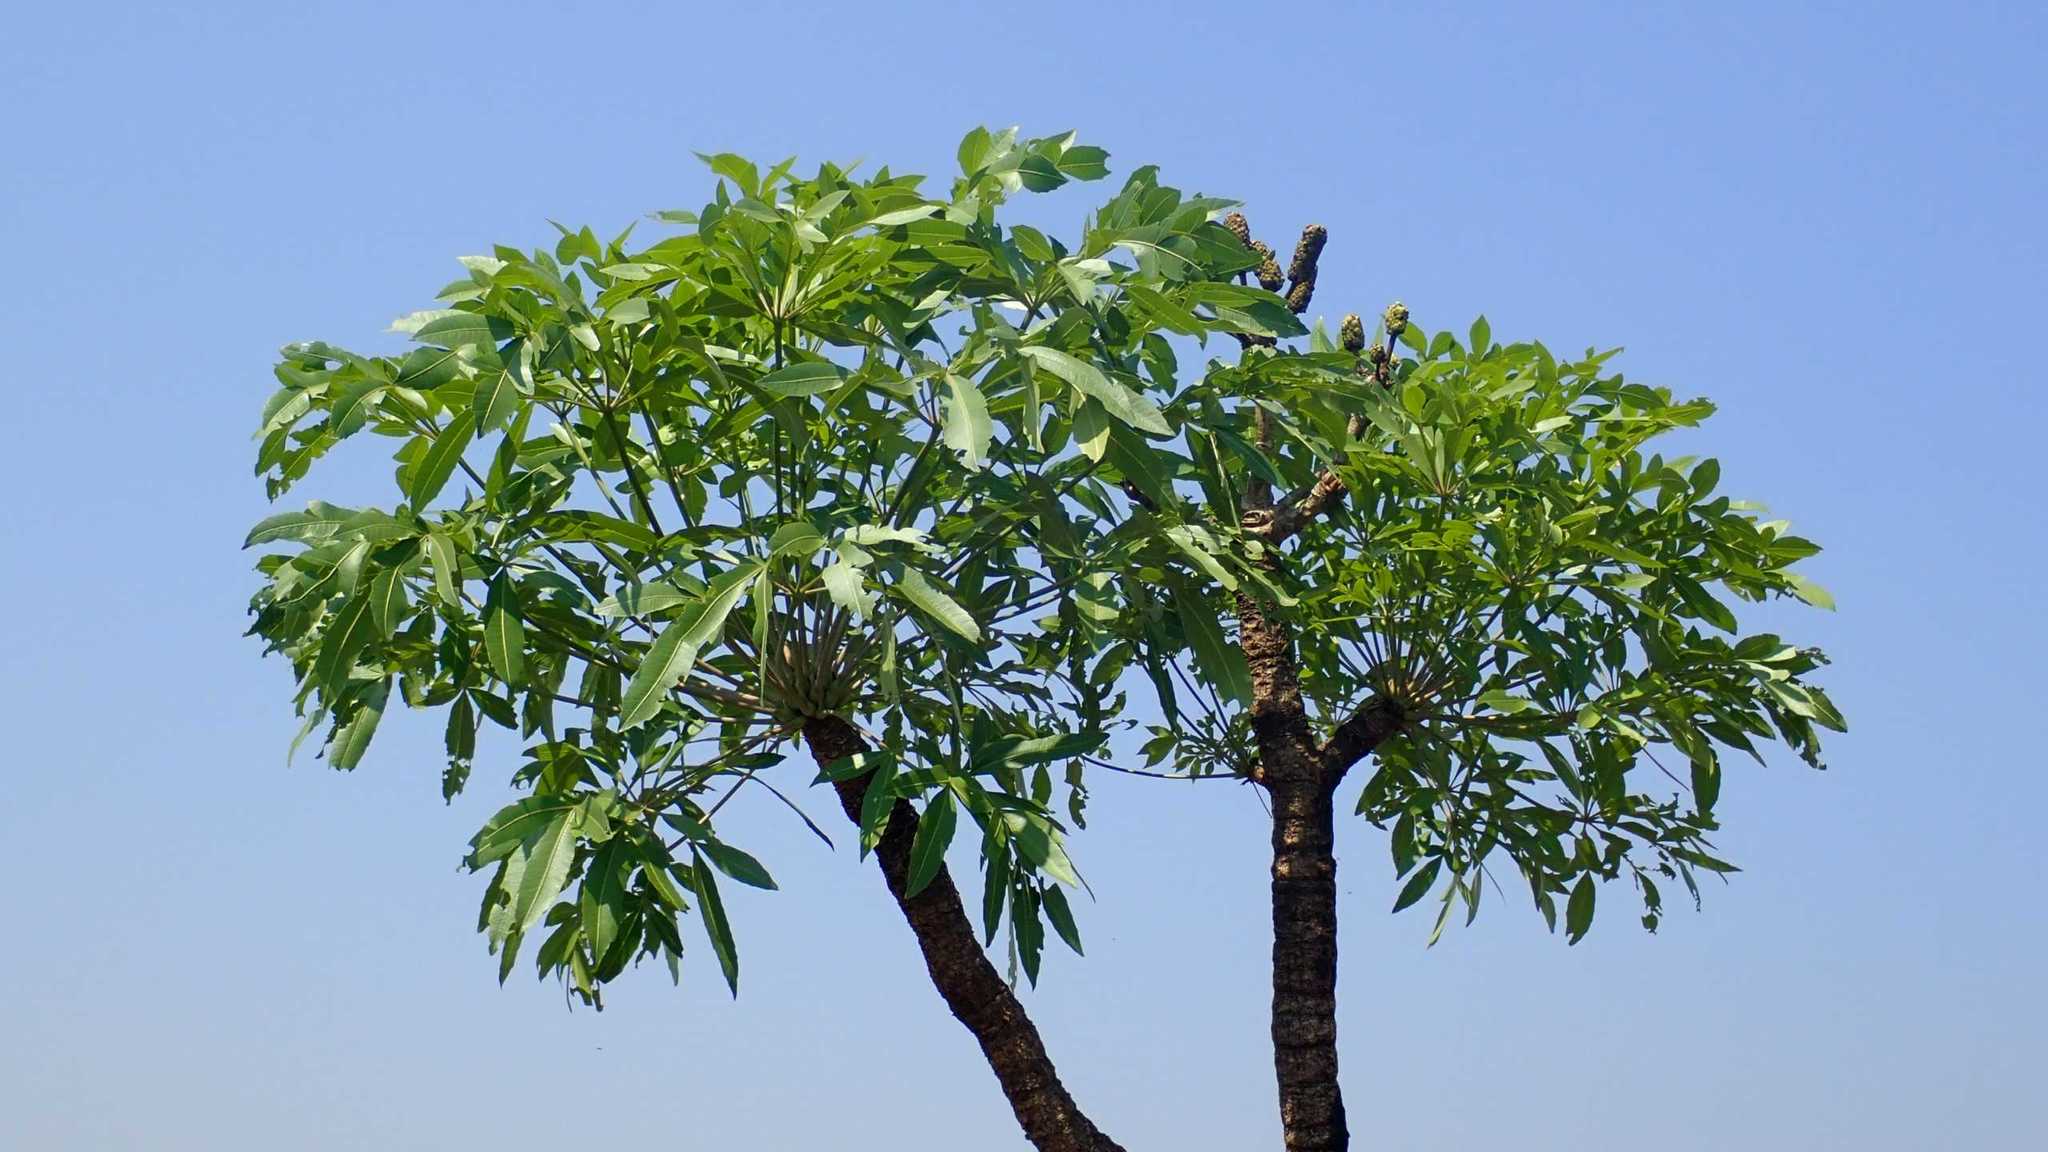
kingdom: Plantae
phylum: Tracheophyta
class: Magnoliopsida
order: Apiales
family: Araliaceae
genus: Cussonia
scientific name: Cussonia spicata
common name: Common cabbagetree
